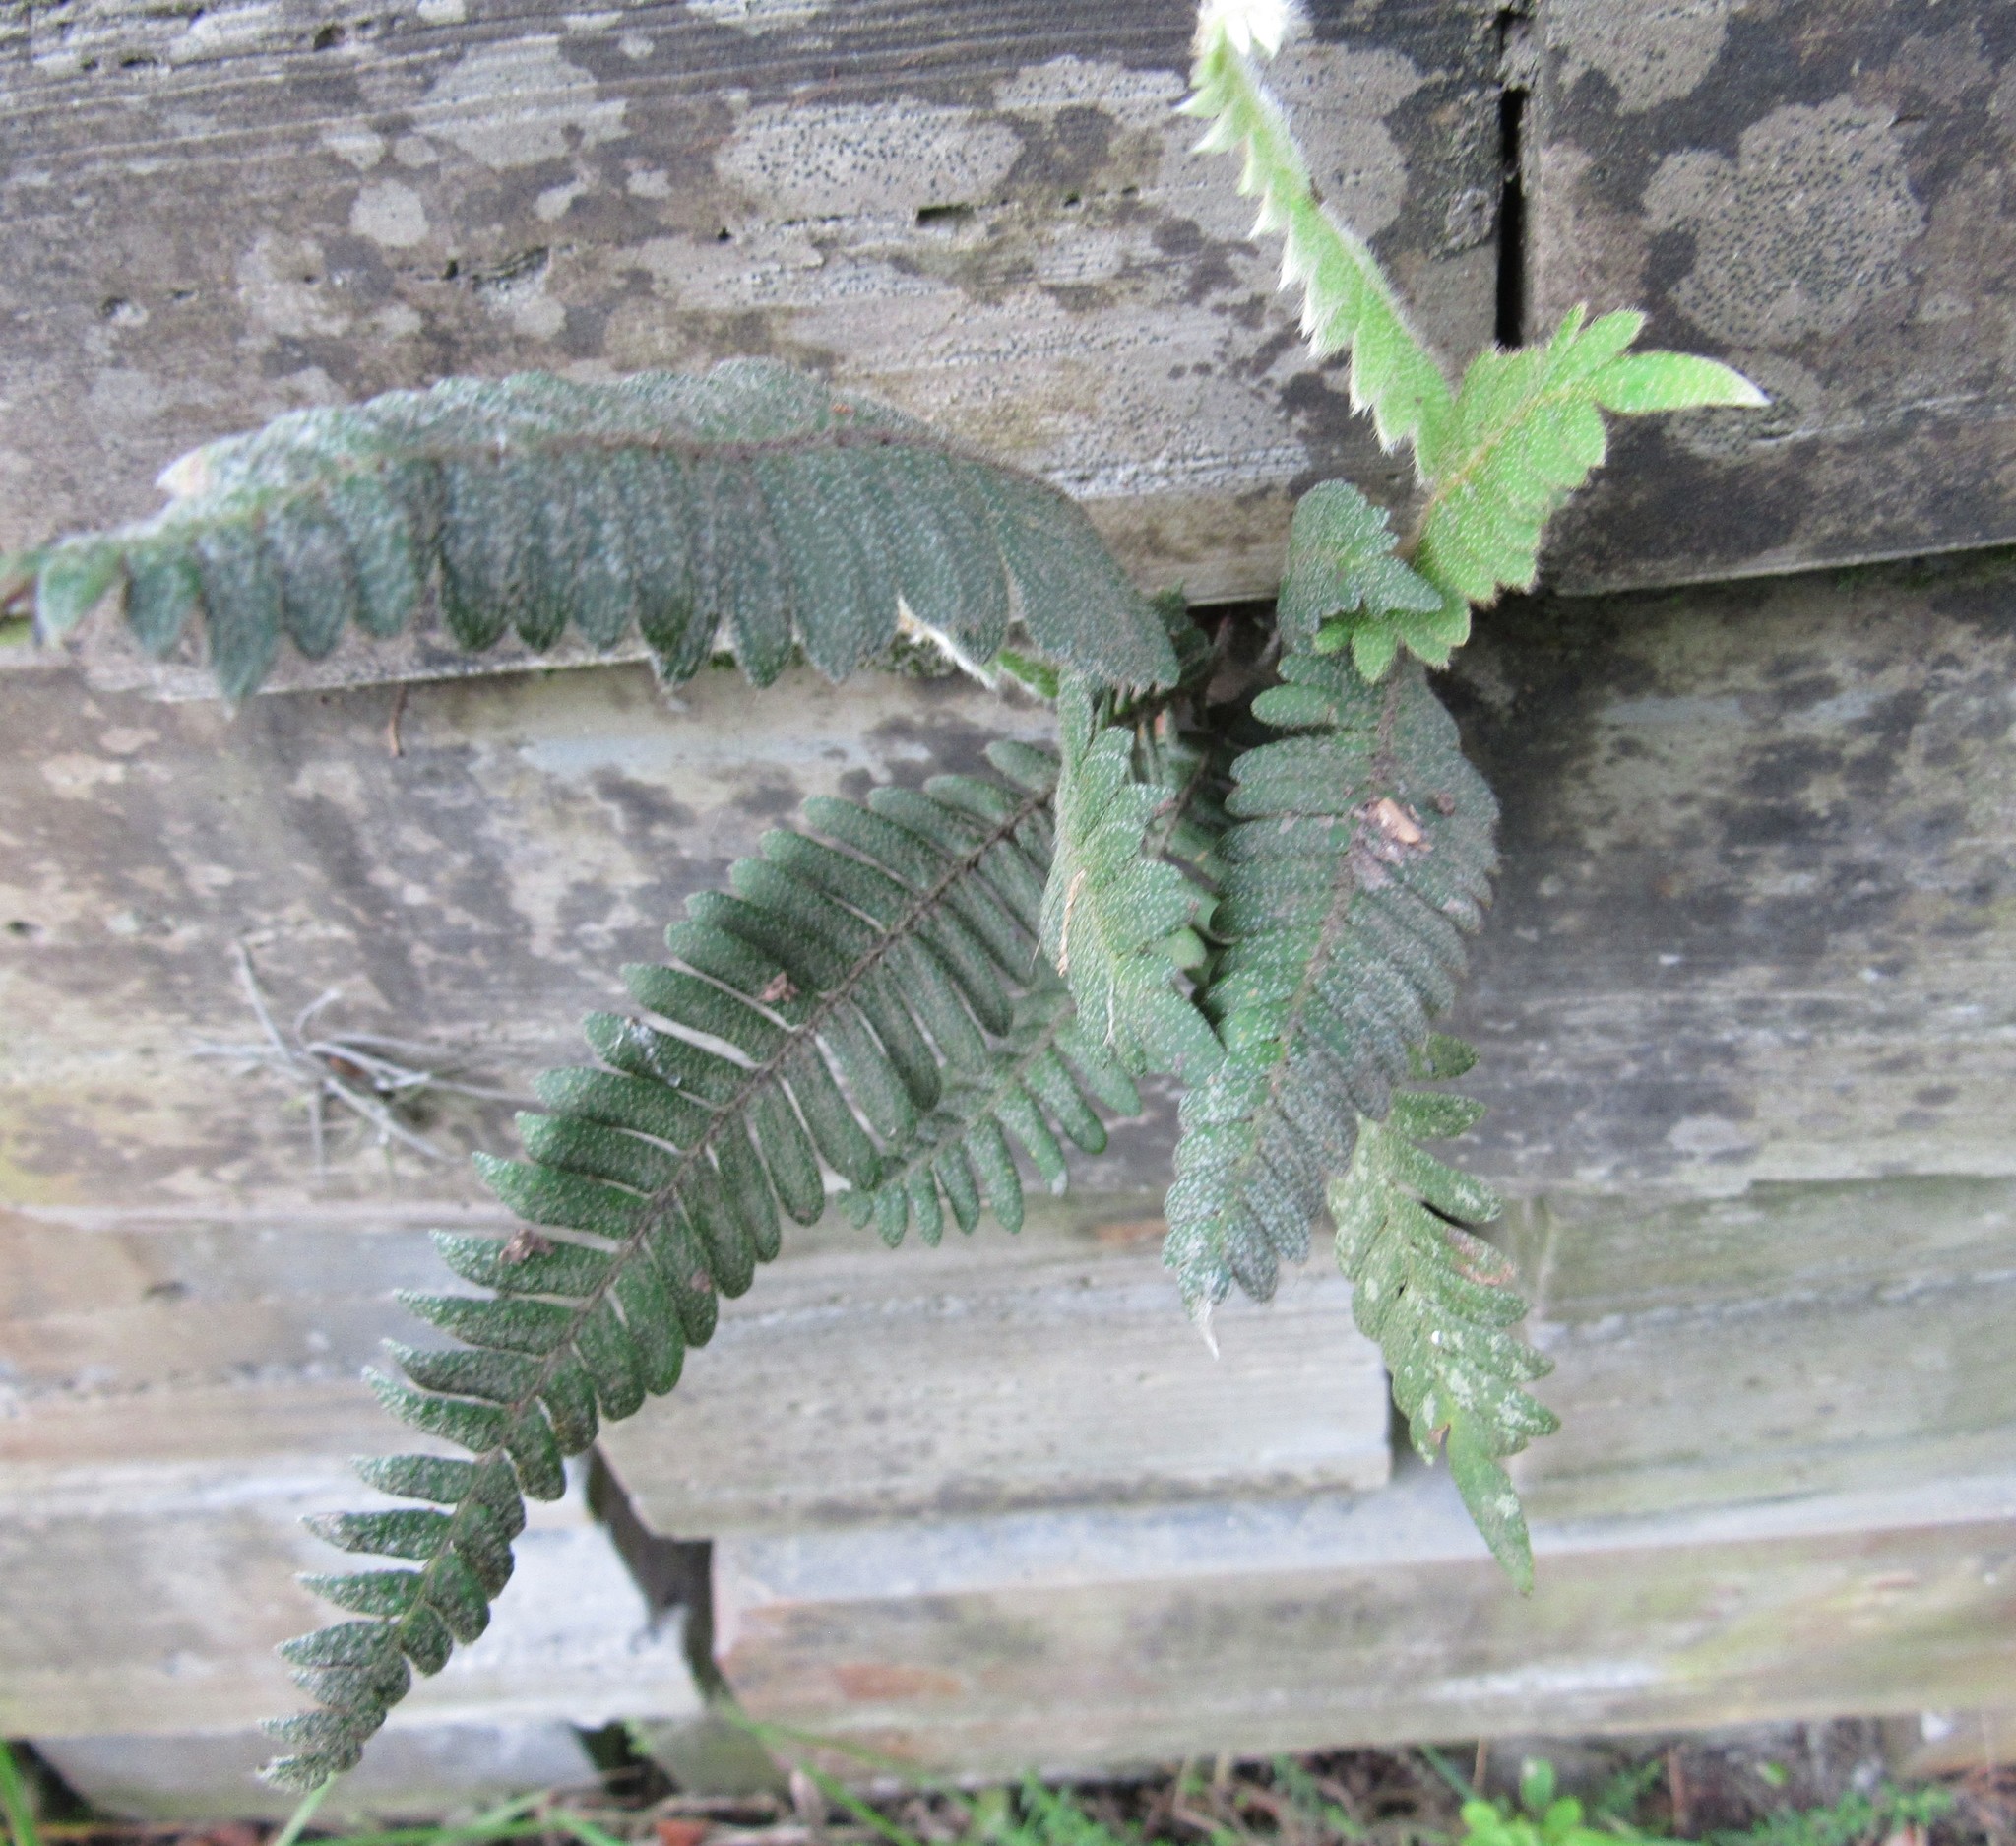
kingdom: Plantae
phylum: Tracheophyta
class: Polypodiopsida
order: Polypodiales
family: Polypodiaceae
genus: Pleopeltis
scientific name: Pleopeltis hirsutissima
